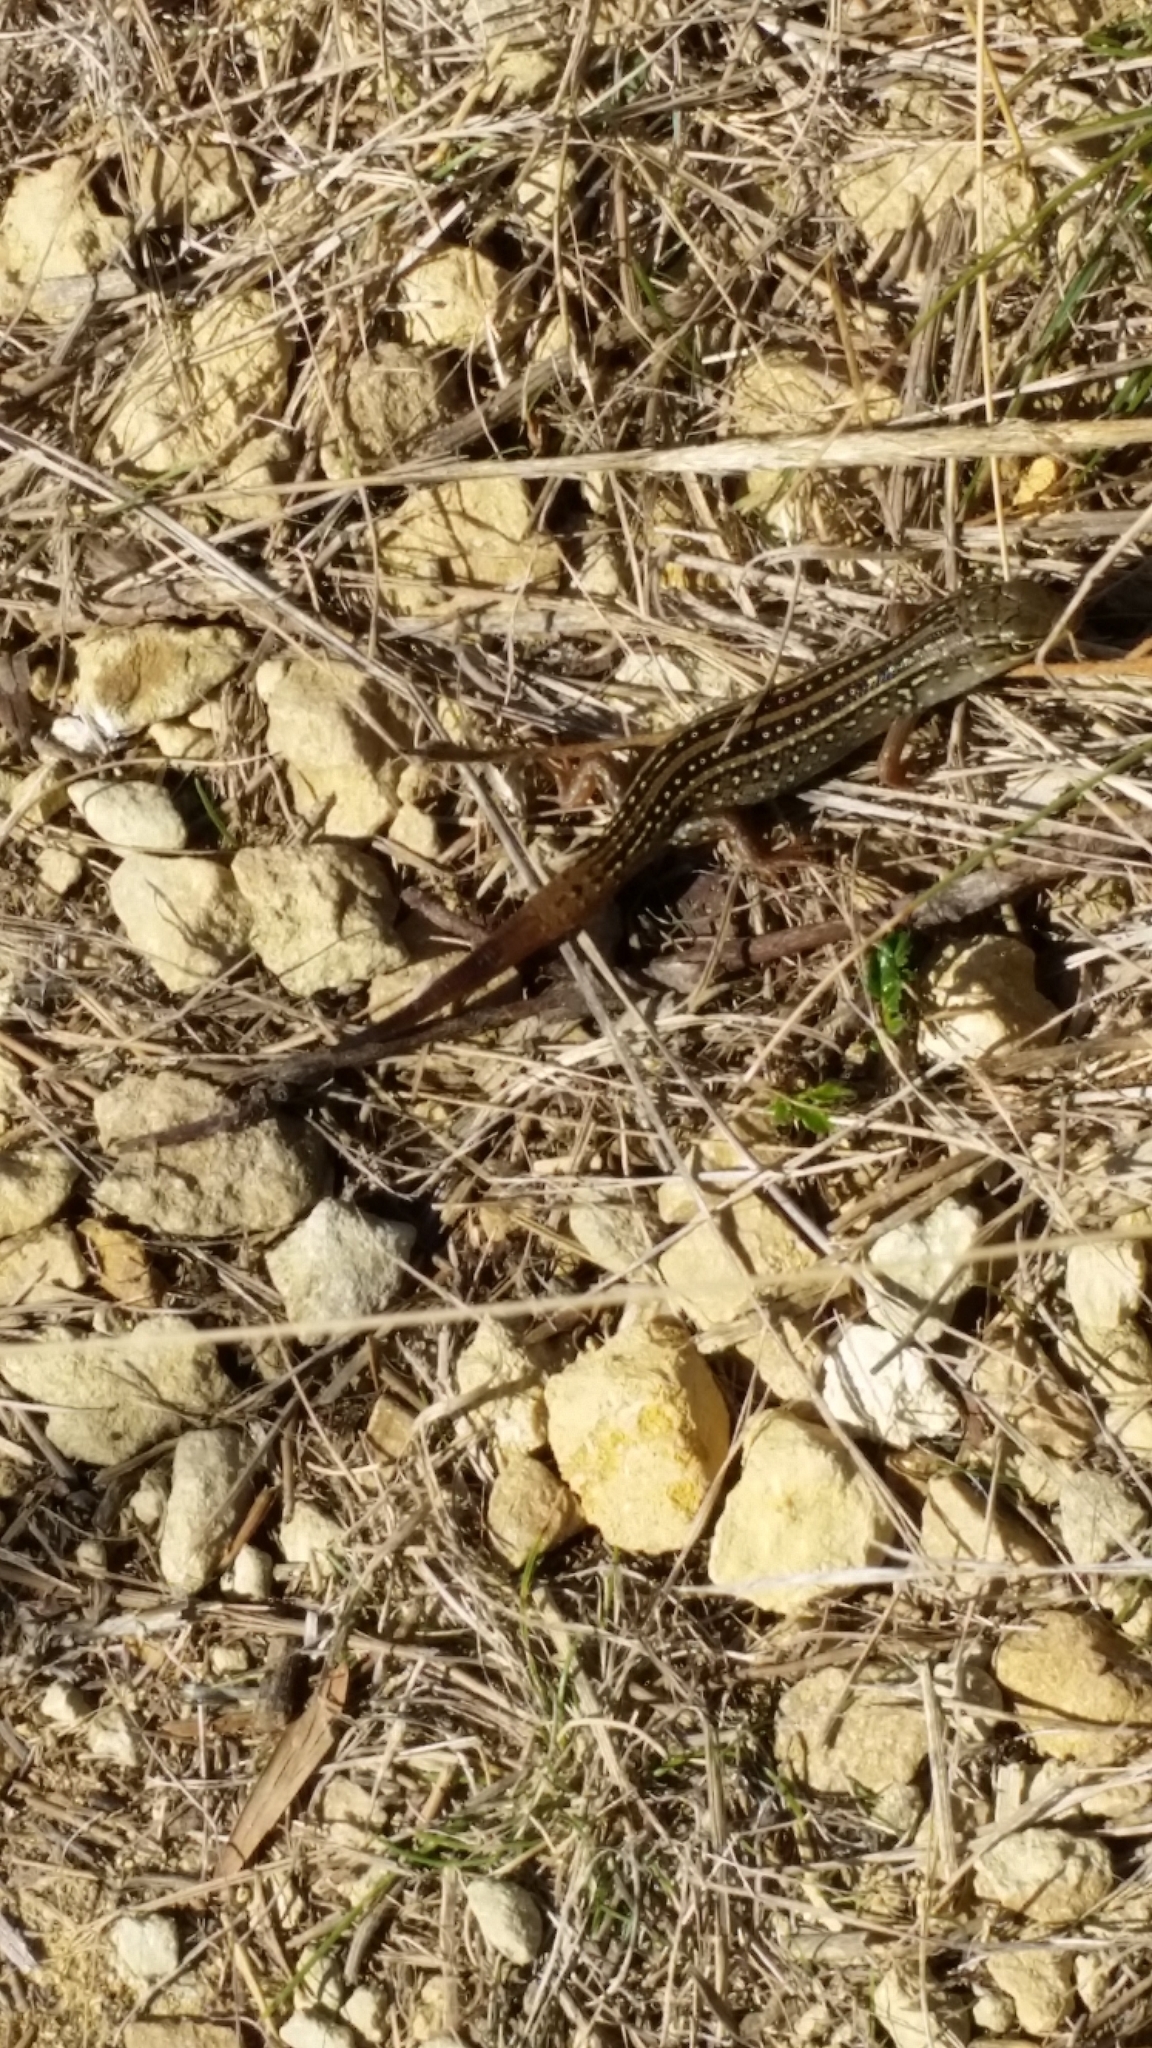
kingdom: Animalia
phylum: Chordata
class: Squamata
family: Scincidae
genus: Liopholis
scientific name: Liopholis whitii
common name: White's rock-skink
